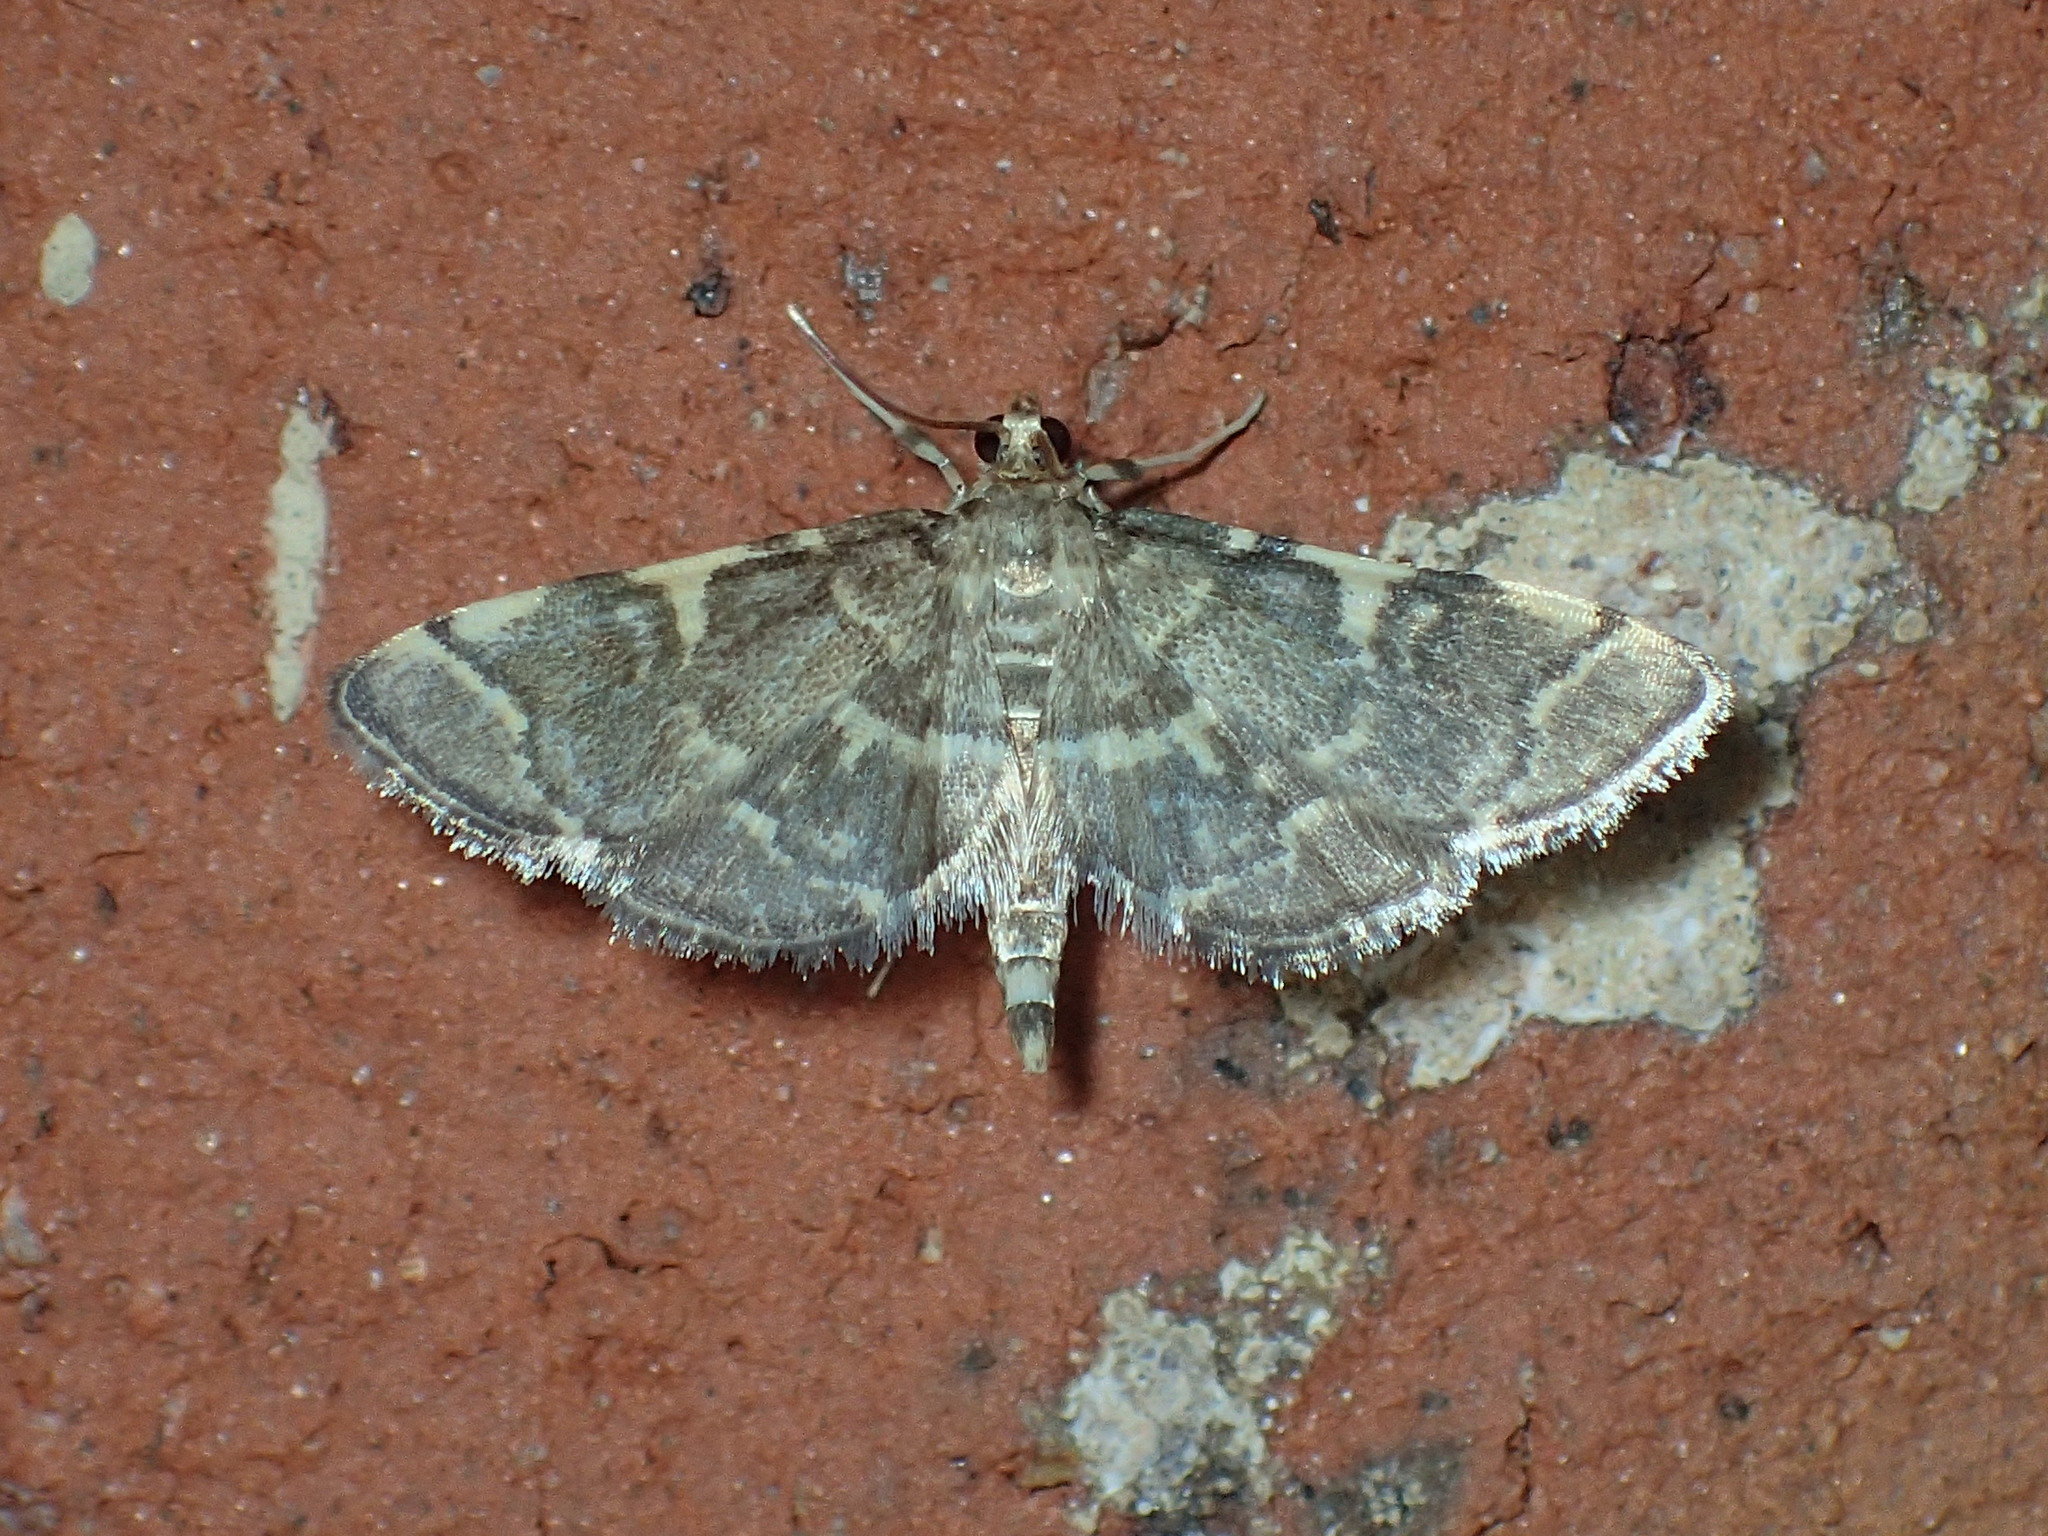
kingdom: Animalia
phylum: Arthropoda
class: Insecta
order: Lepidoptera
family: Crambidae
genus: Anageshna
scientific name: Anageshna primordialis
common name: Yellow-spotted webworm moth
